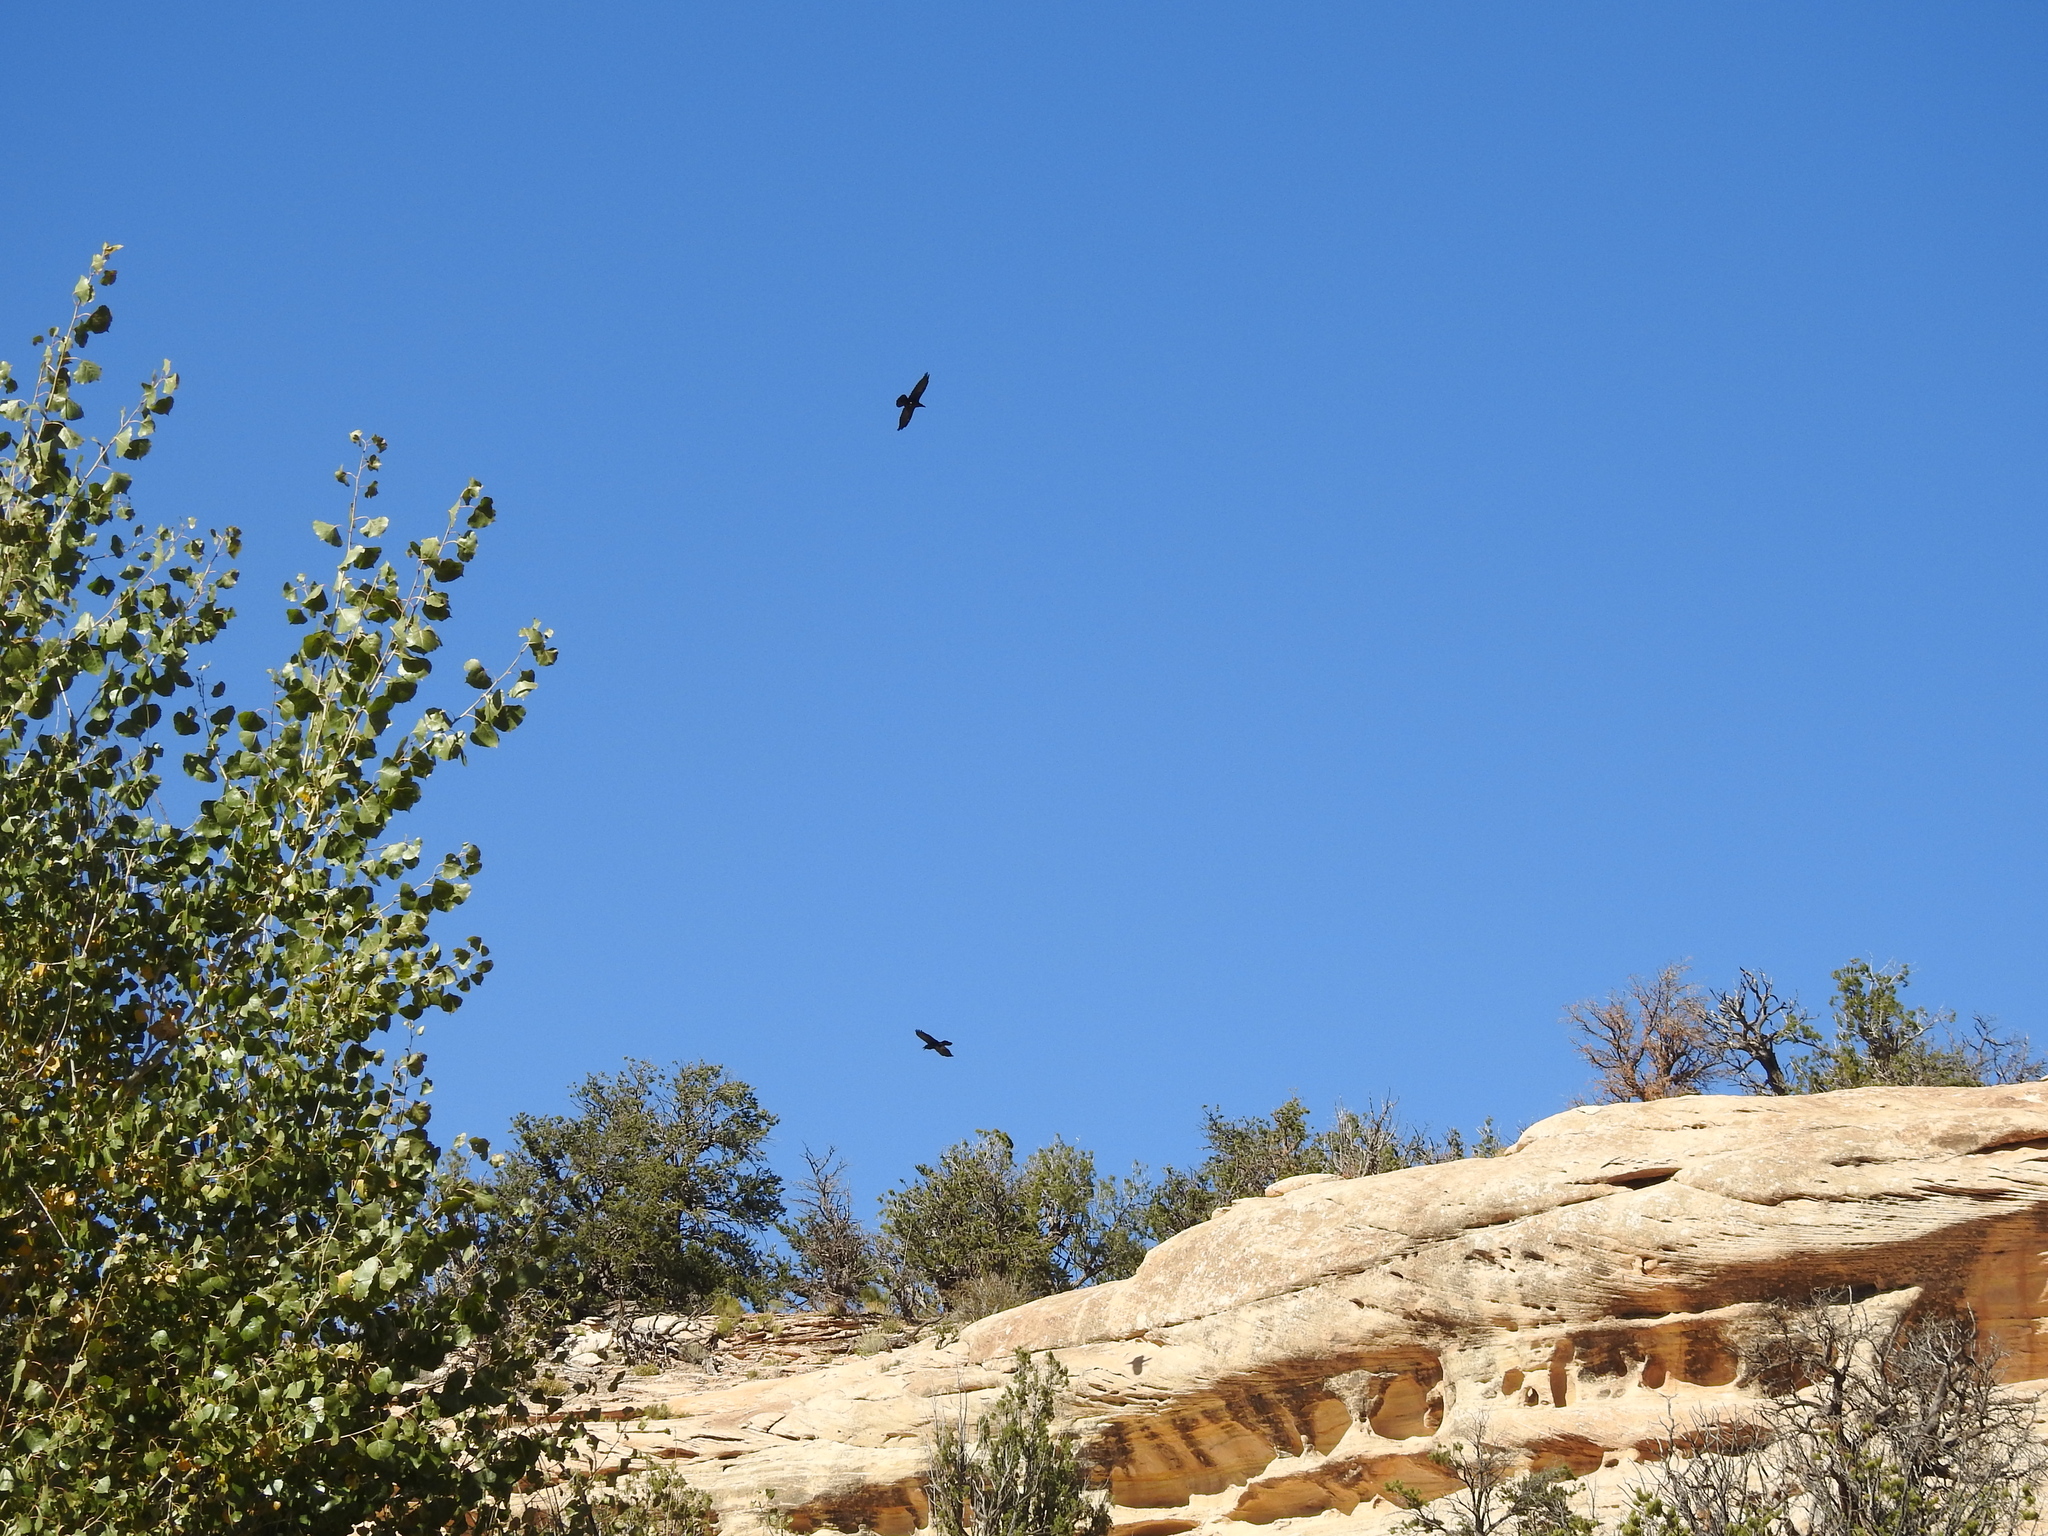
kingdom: Animalia
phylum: Chordata
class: Aves
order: Passeriformes
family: Corvidae
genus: Corvus
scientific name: Corvus corax
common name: Common raven
